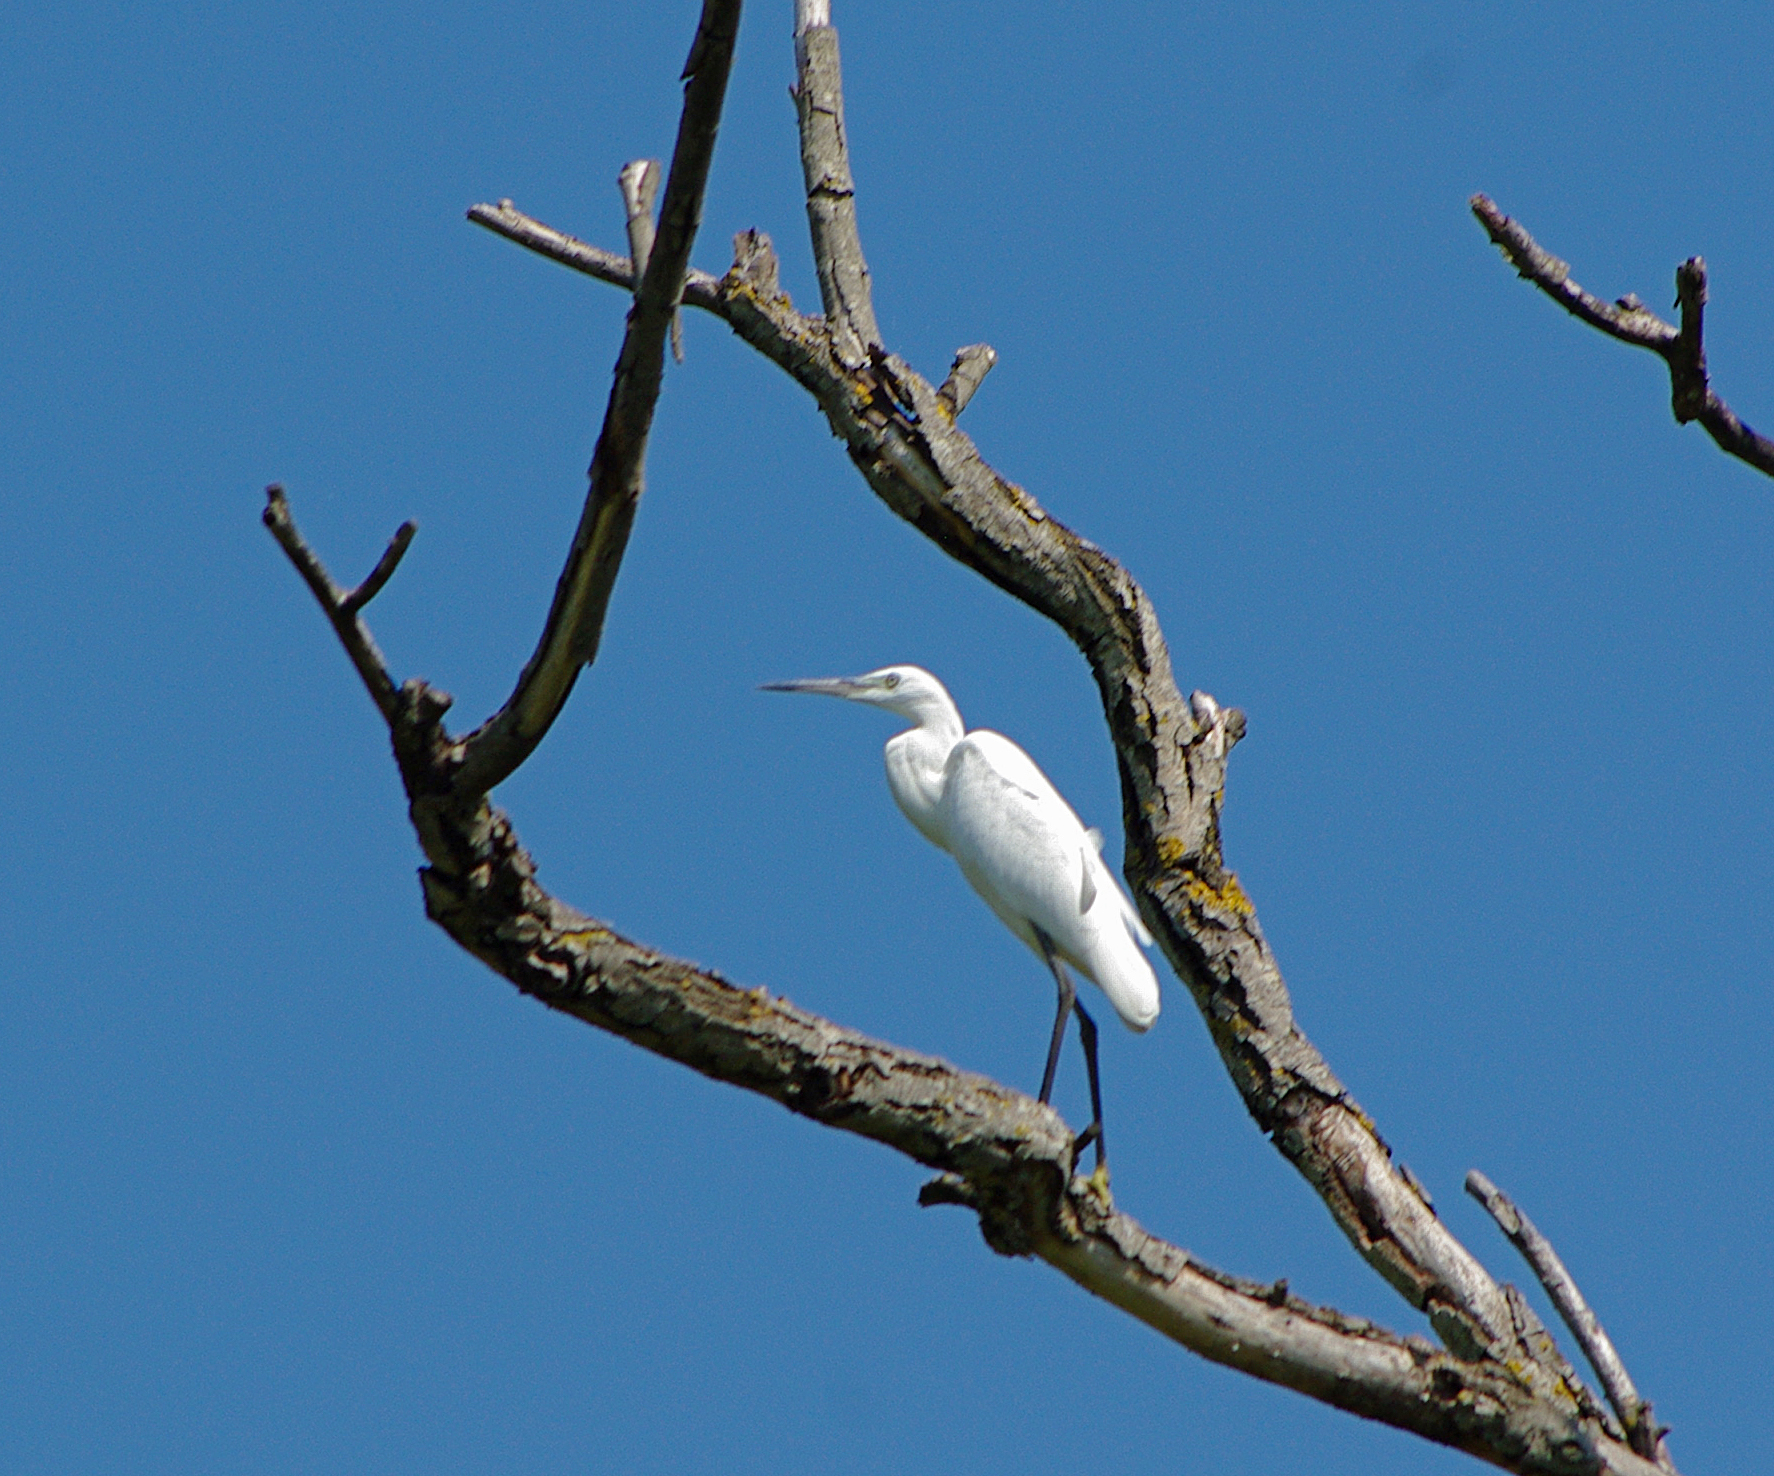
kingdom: Animalia
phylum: Chordata
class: Aves
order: Pelecaniformes
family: Ardeidae
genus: Egretta
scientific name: Egretta garzetta
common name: Little egret
